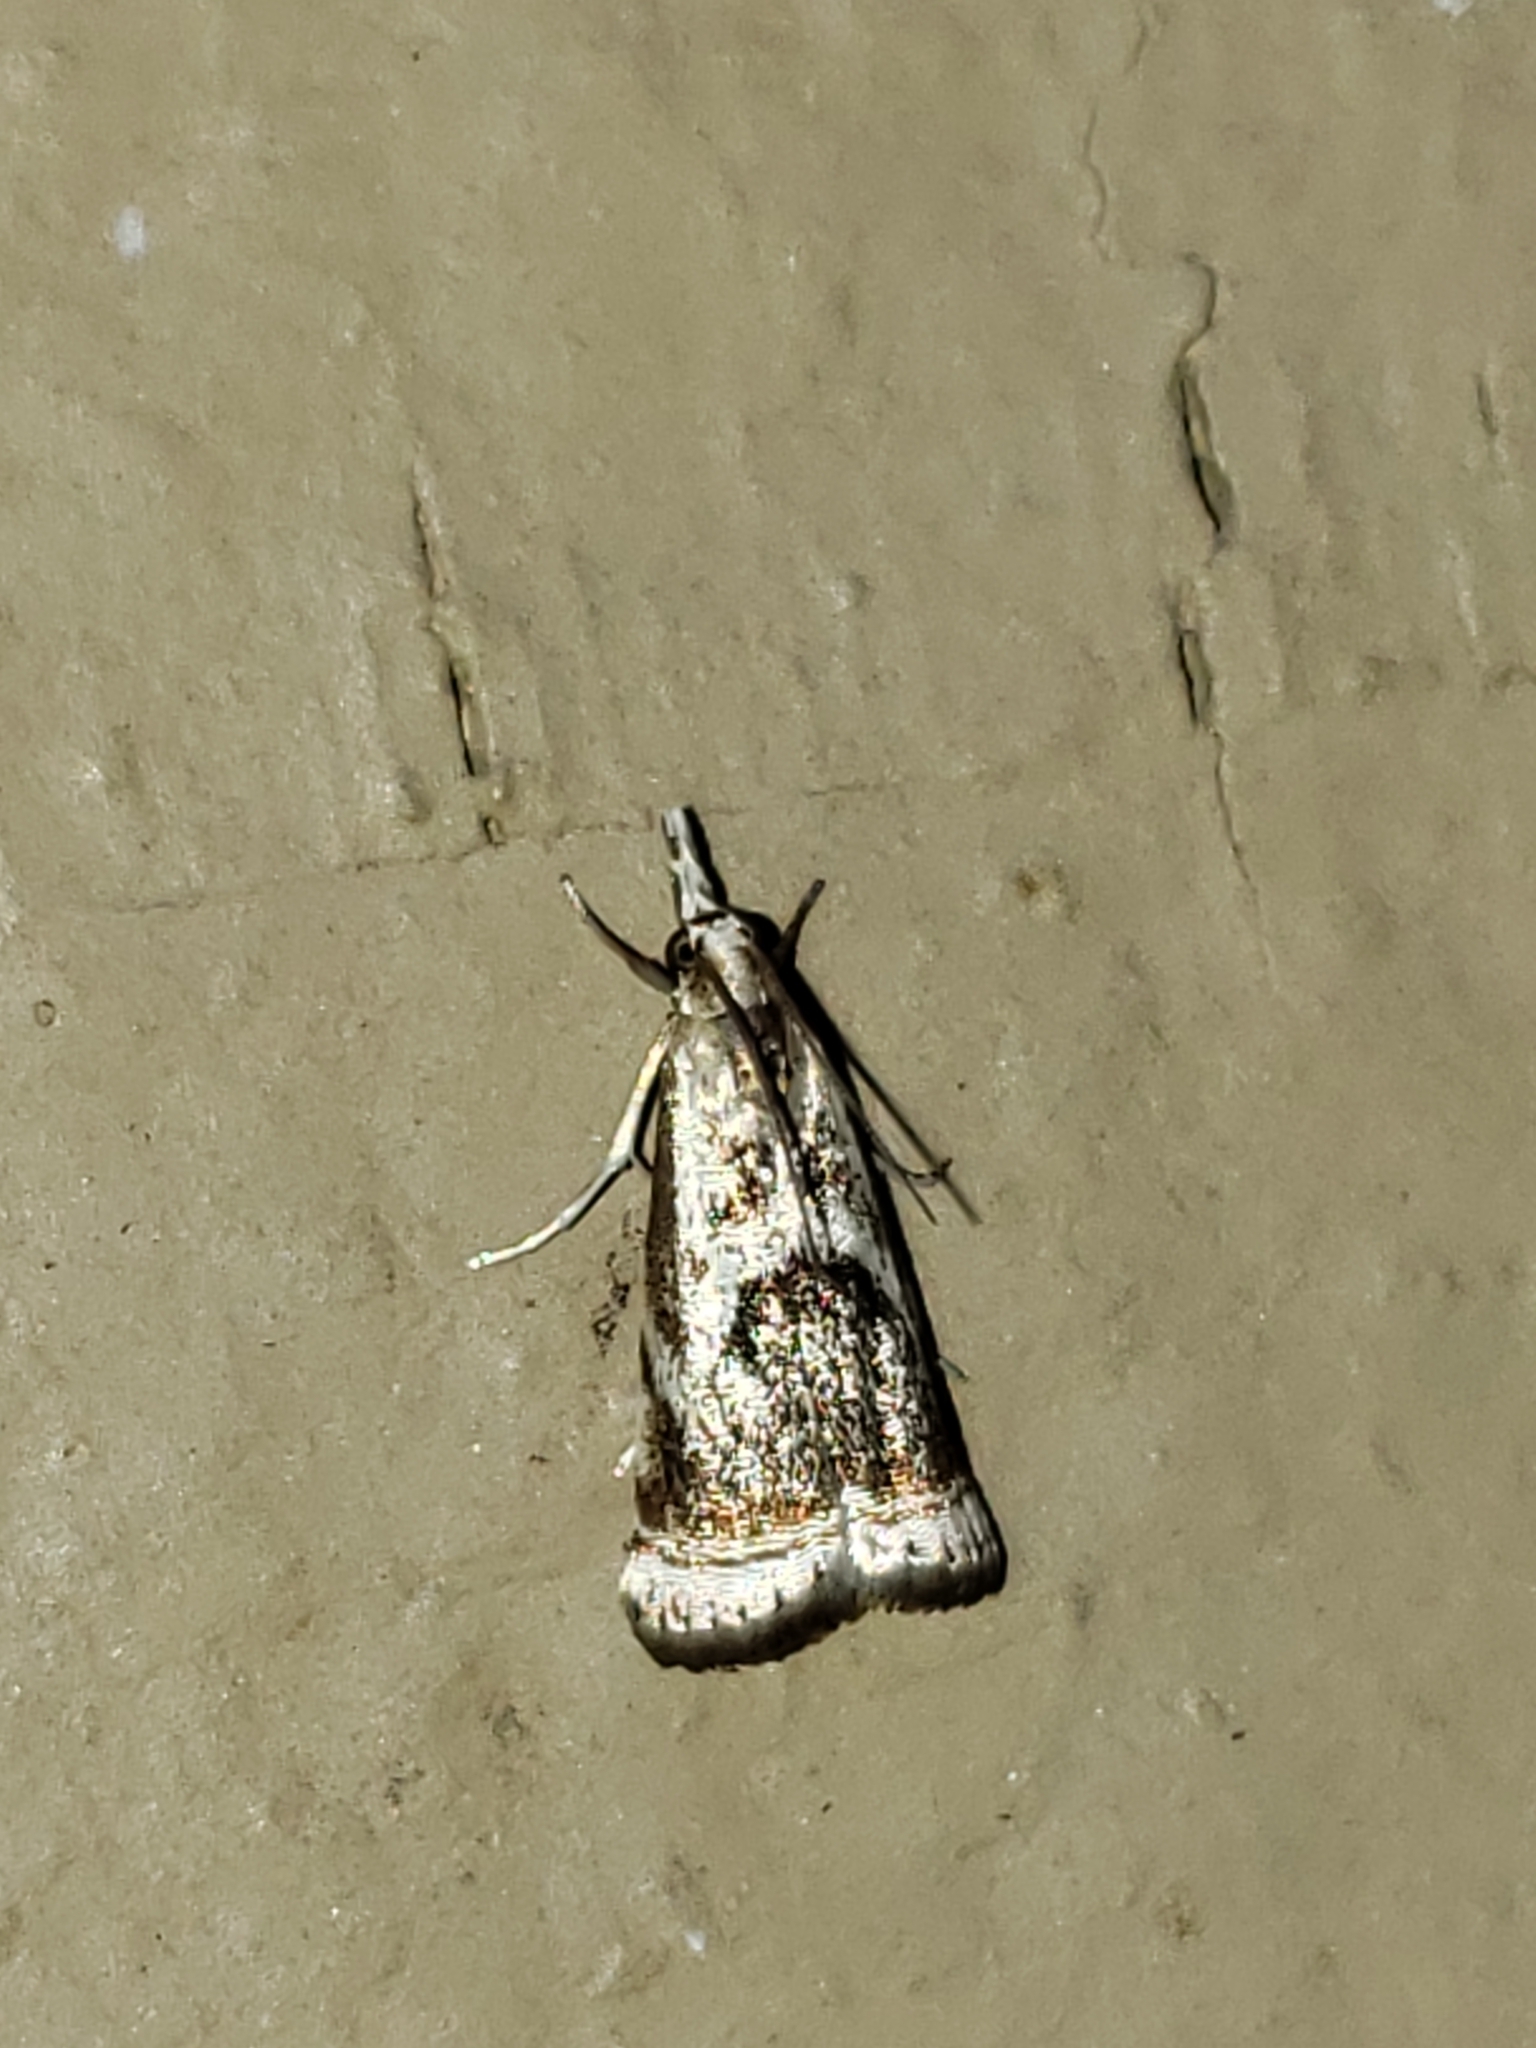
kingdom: Animalia
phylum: Arthropoda
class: Insecta
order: Lepidoptera
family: Crambidae
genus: Microcrambus
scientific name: Microcrambus elegans
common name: Elegant grass-veneer
